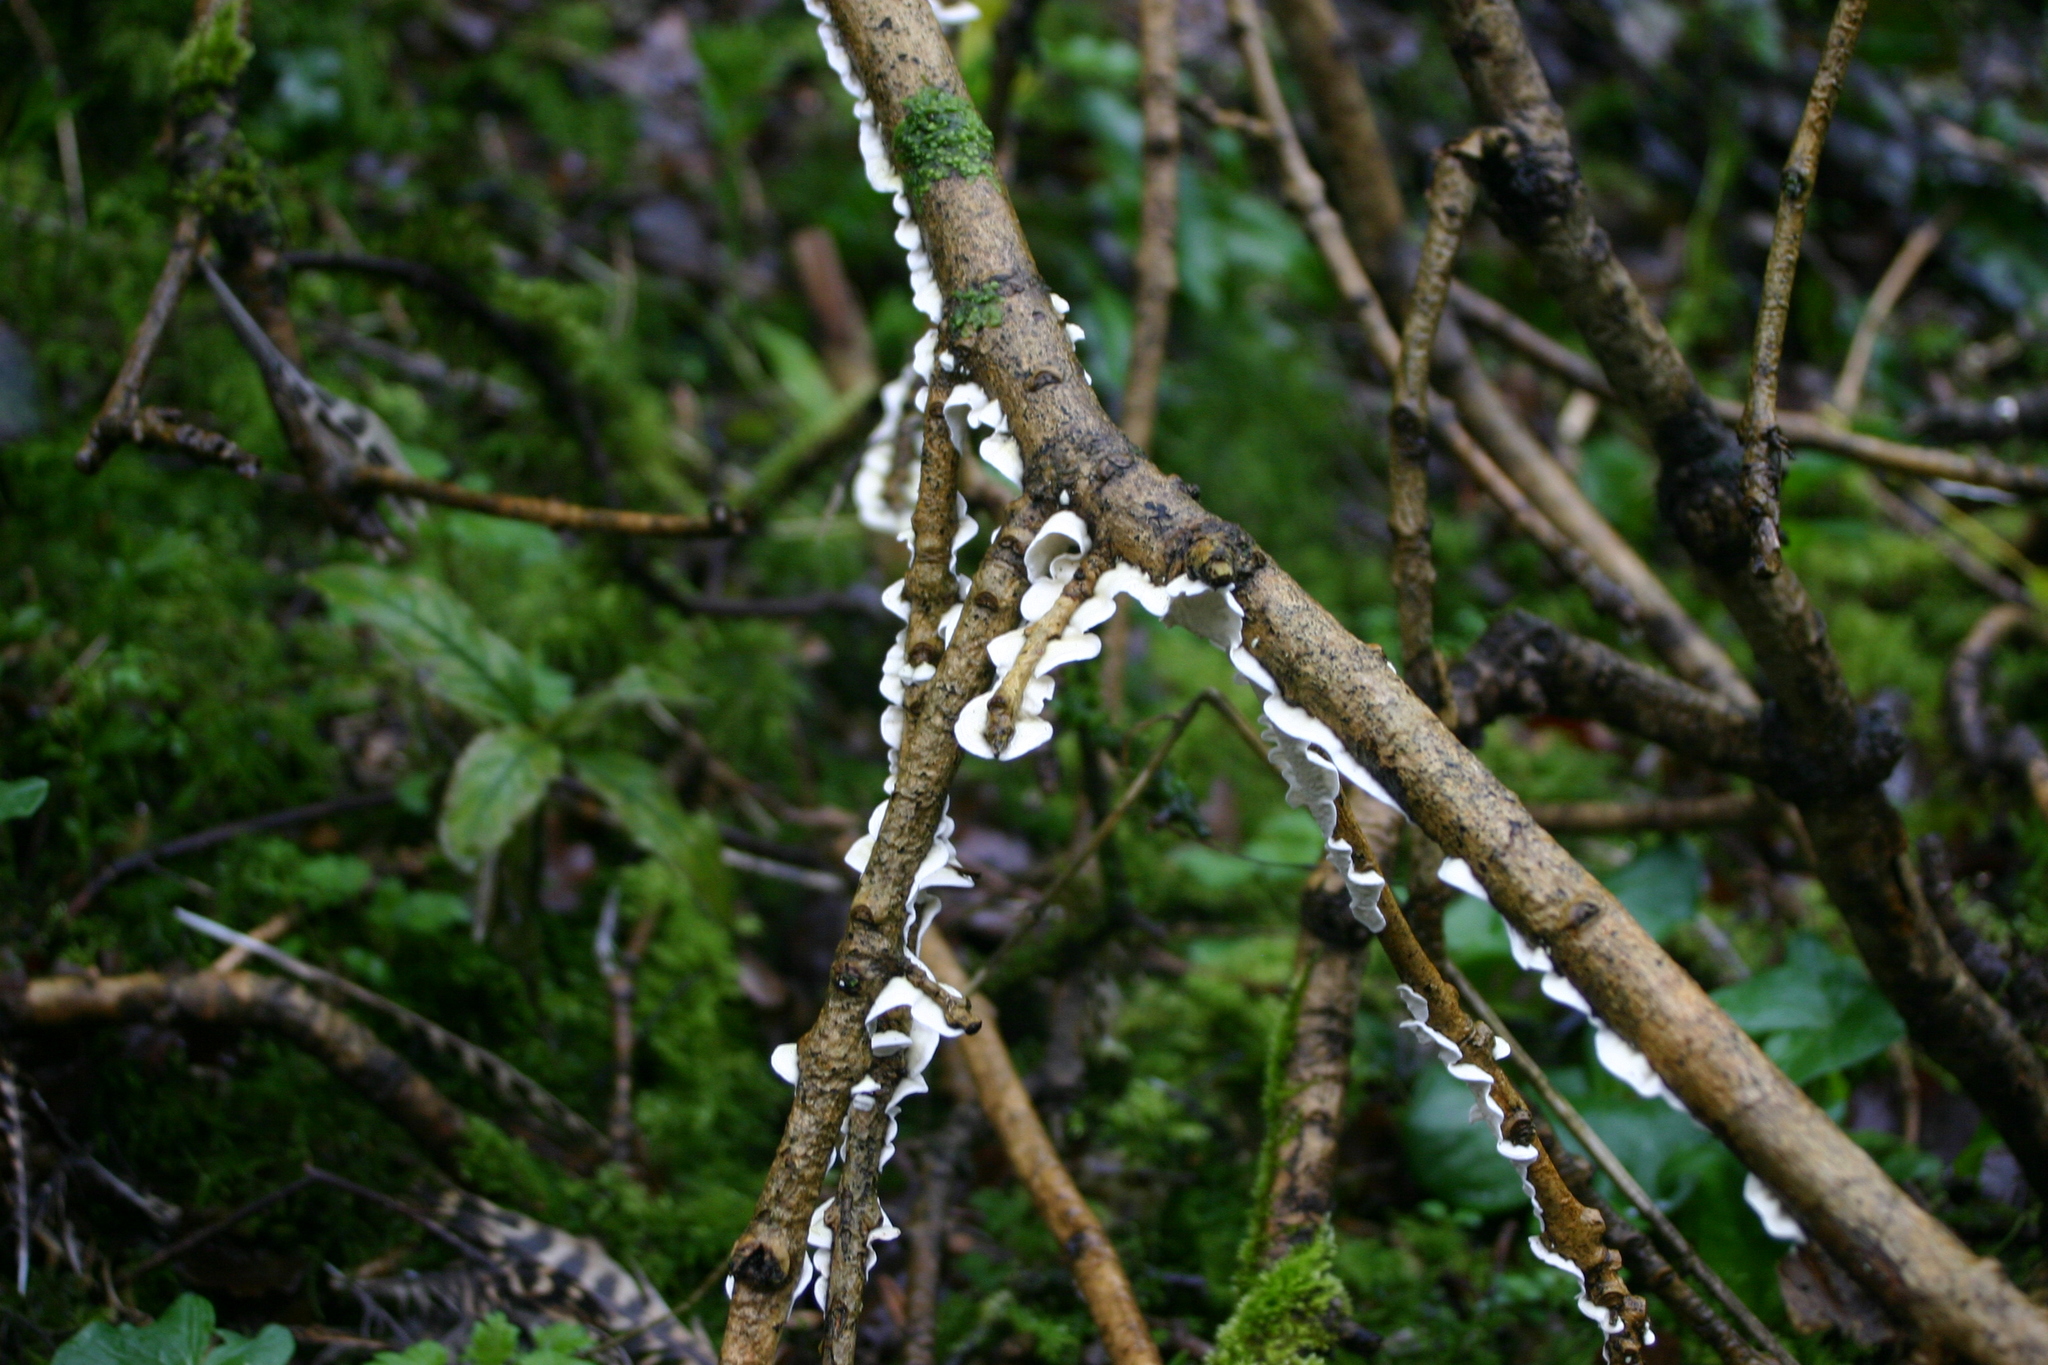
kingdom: Fungi
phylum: Basidiomycota
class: Agaricomycetes
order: Polyporales
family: Irpicaceae
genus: Byssomerulius
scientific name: Byssomerulius corium
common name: Netted crust
